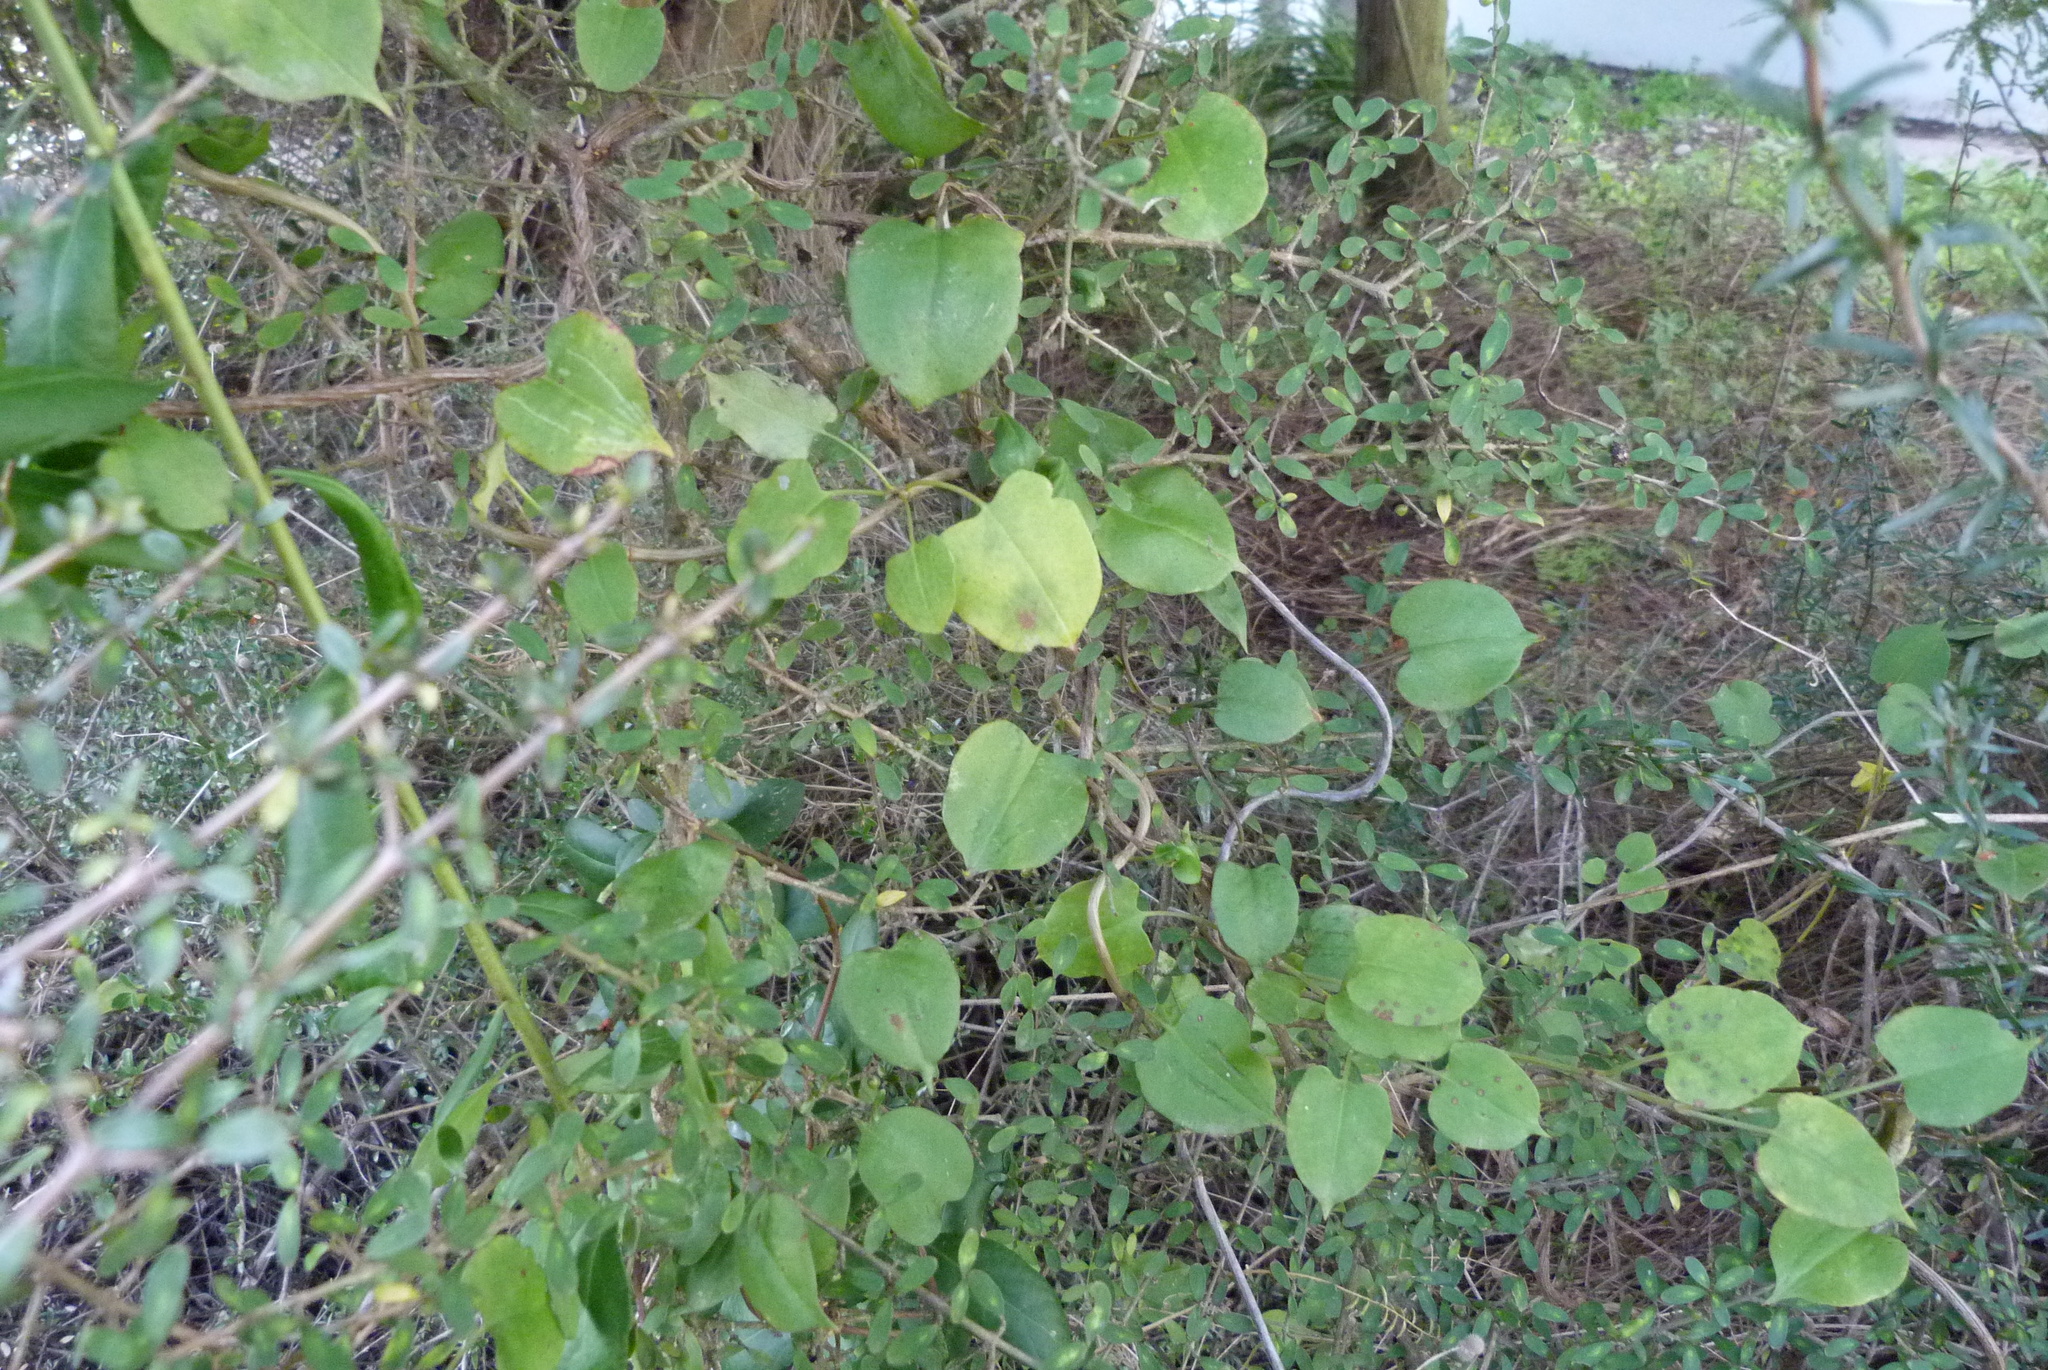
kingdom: Plantae
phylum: Tracheophyta
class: Magnoliopsida
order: Caryophyllales
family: Polygonaceae
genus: Muehlenbeckia
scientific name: Muehlenbeckia australis
